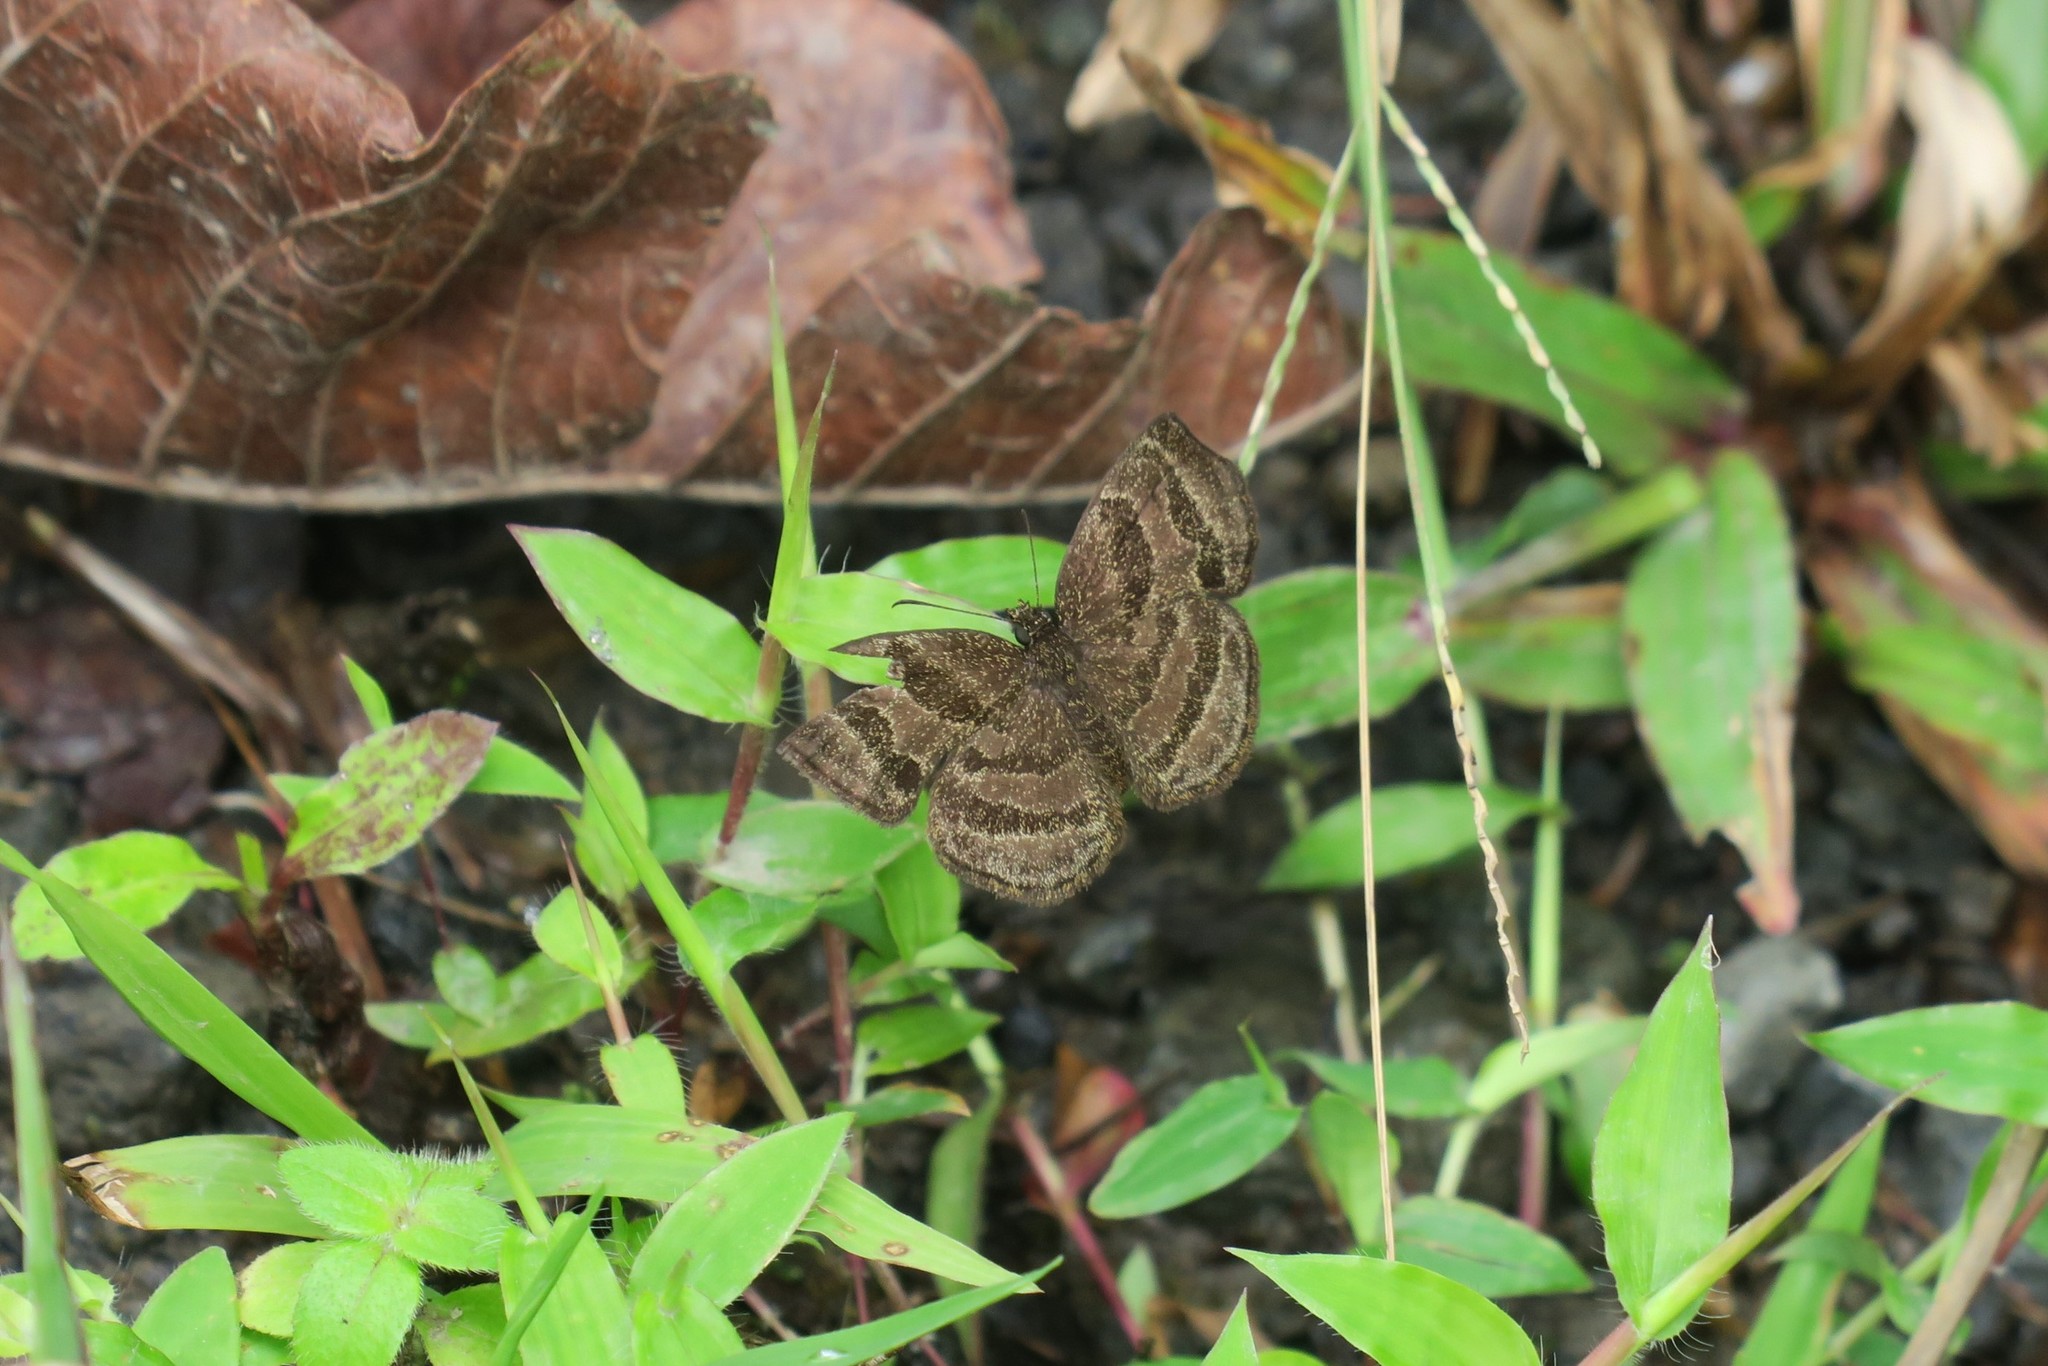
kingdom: Animalia
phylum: Arthropoda
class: Insecta
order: Lepidoptera
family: Hesperiidae
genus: Trina
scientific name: Trina geometrina
